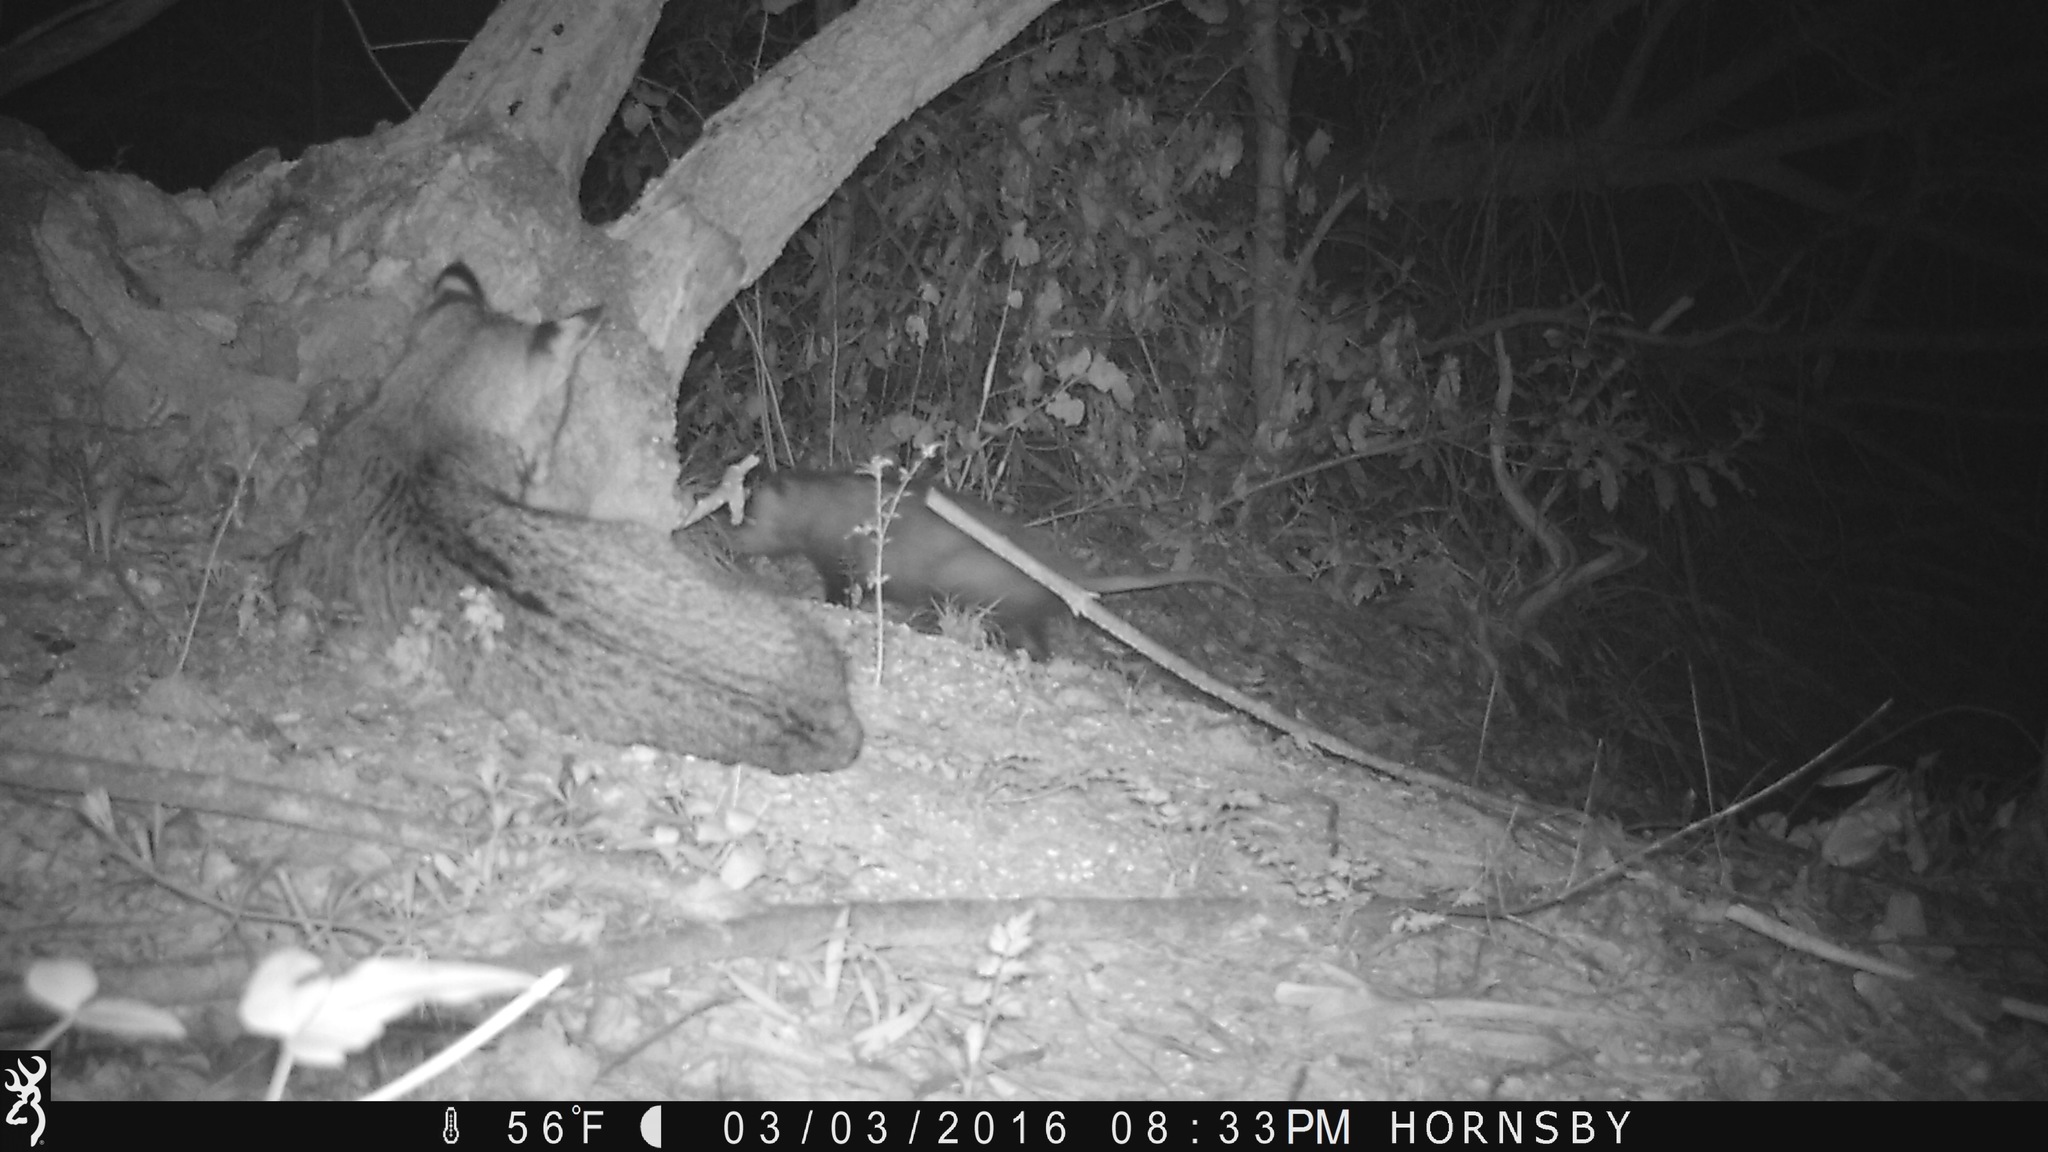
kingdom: Animalia
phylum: Chordata
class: Mammalia
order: Carnivora
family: Felidae
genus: Lynx
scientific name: Lynx rufus
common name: Bobcat
